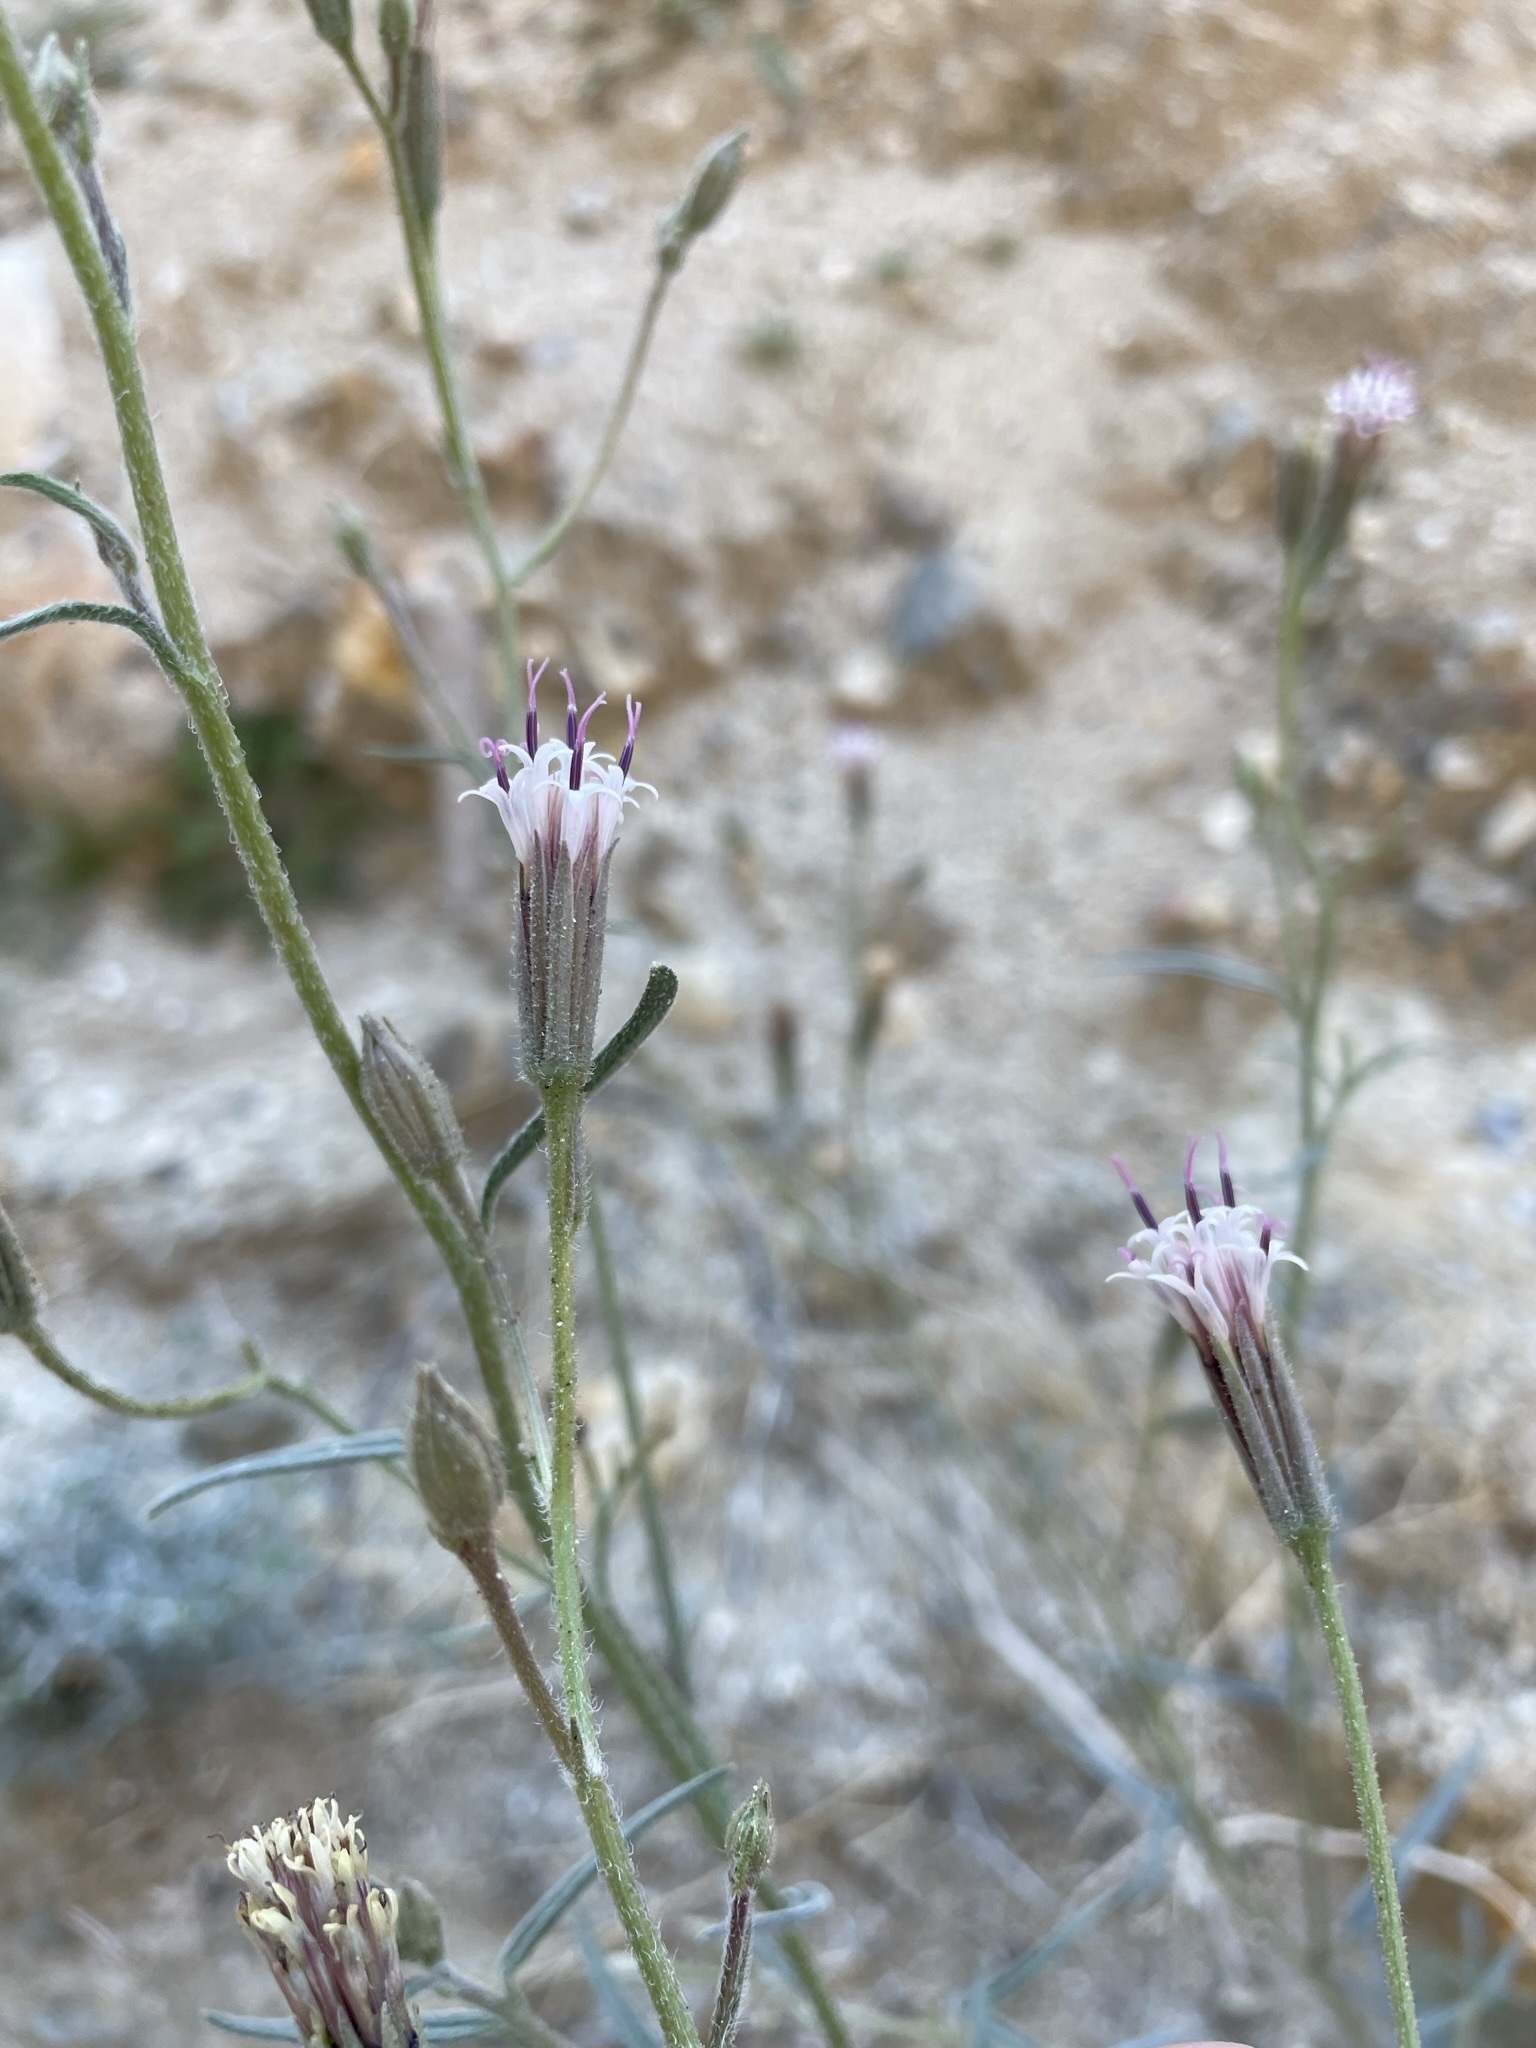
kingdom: Plantae
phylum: Tracheophyta
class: Magnoliopsida
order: Asterales
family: Asteraceae
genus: Palafoxia
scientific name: Palafoxia arida
